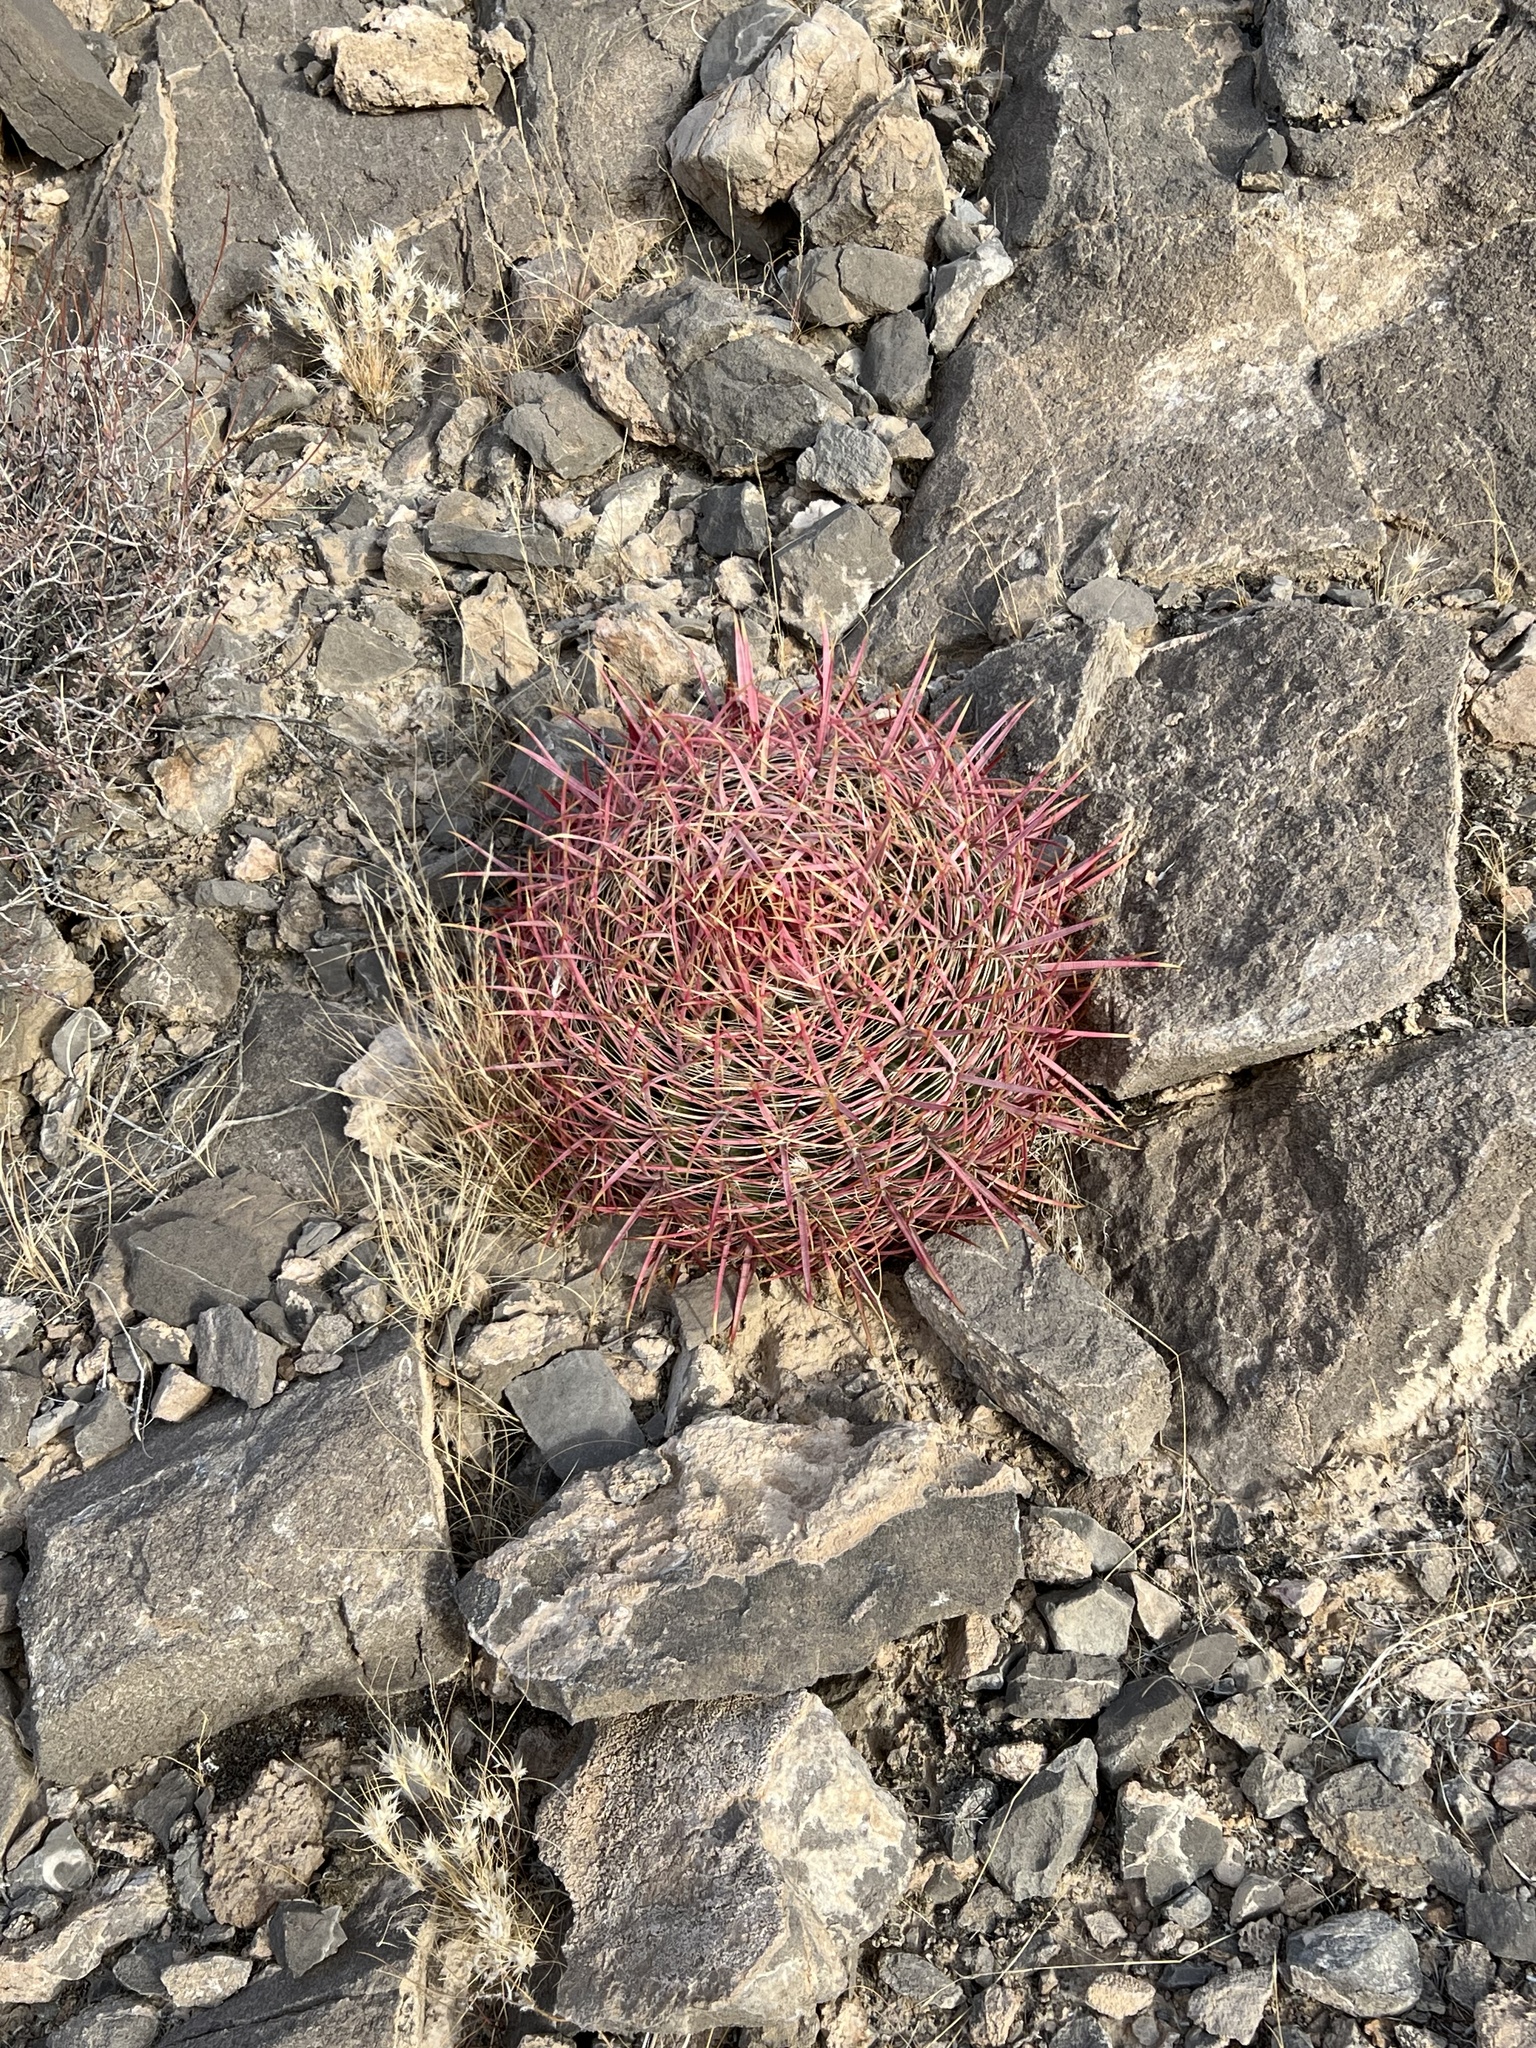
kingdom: Plantae
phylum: Tracheophyta
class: Magnoliopsida
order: Caryophyllales
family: Cactaceae
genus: Ferocactus
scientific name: Ferocactus cylindraceus
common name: California barrel cactus
